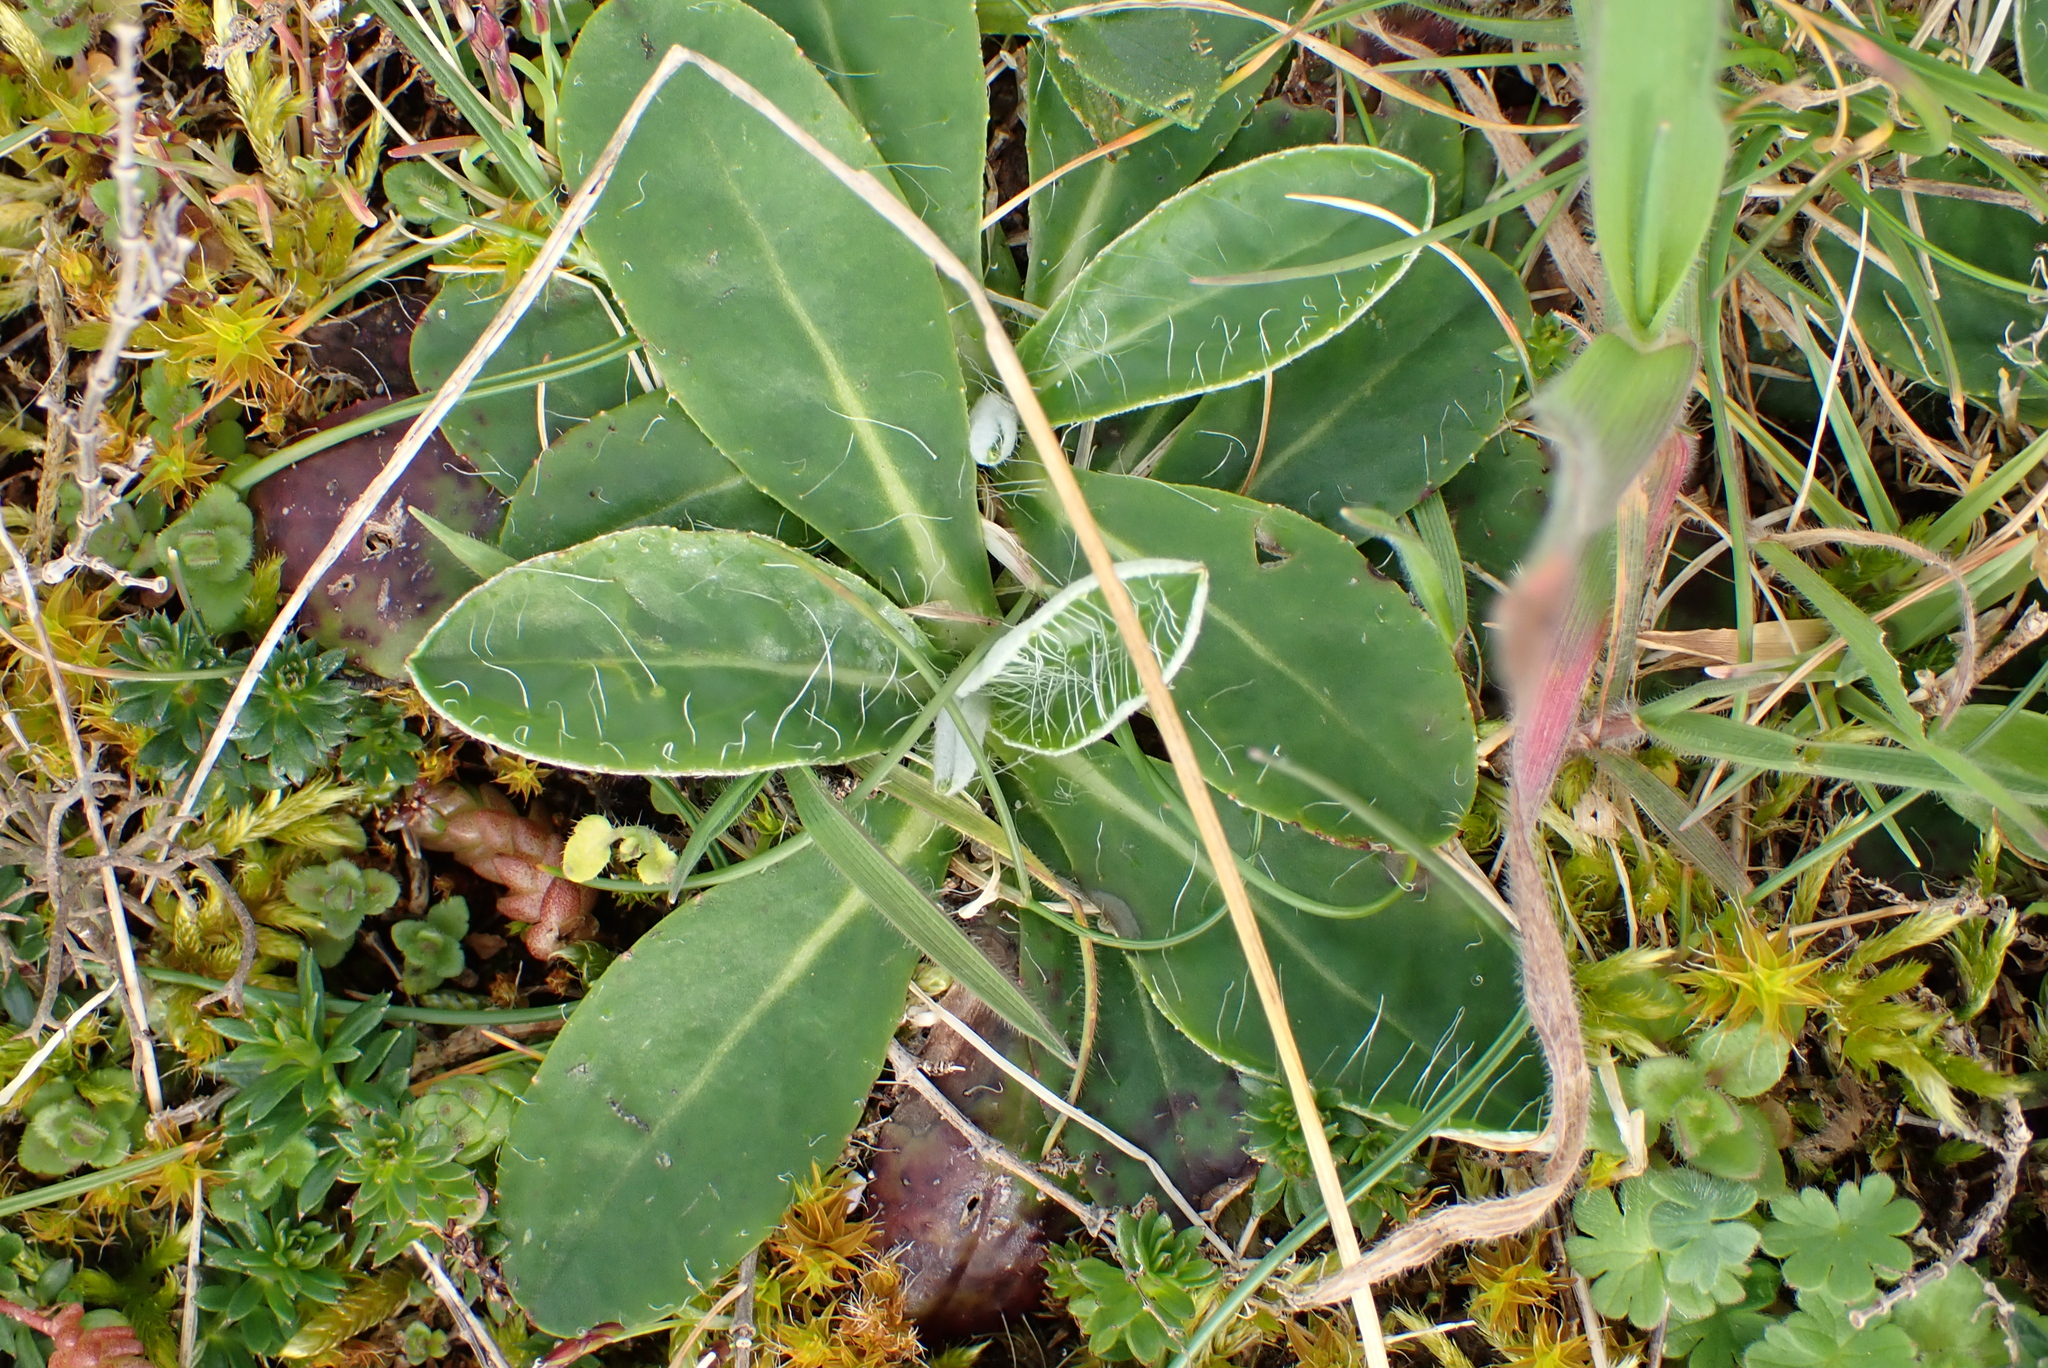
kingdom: Plantae
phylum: Tracheophyta
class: Magnoliopsida
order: Asterales
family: Asteraceae
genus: Pilosella
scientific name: Pilosella officinarum
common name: Mouse-ear hawkweed
